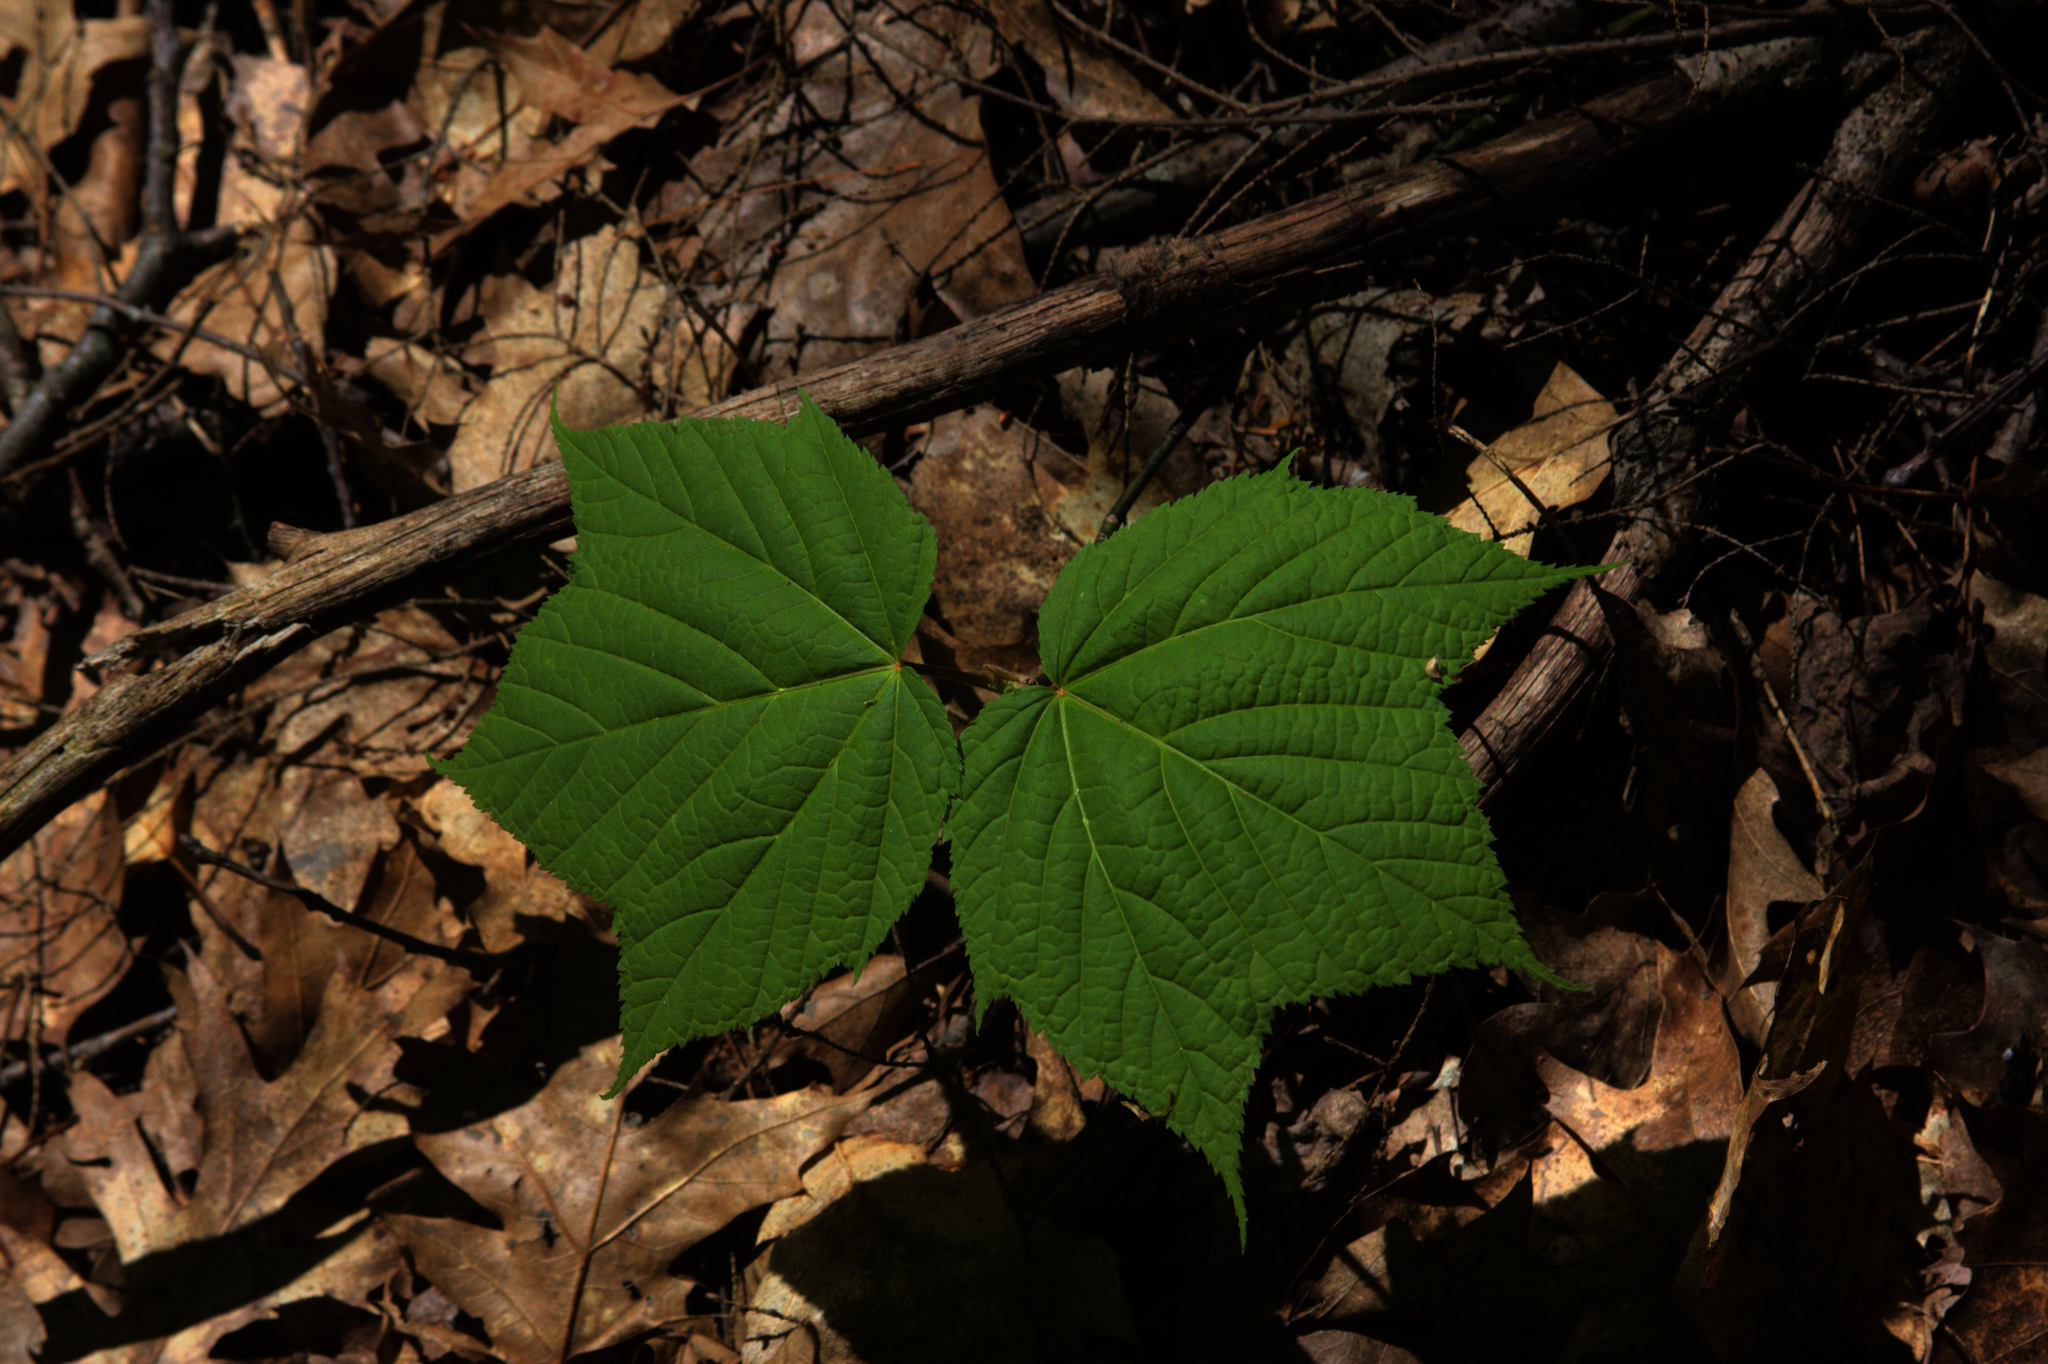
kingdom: Plantae
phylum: Tracheophyta
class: Magnoliopsida
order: Sapindales
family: Sapindaceae
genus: Acer
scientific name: Acer pensylvanicum
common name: Moosewood
